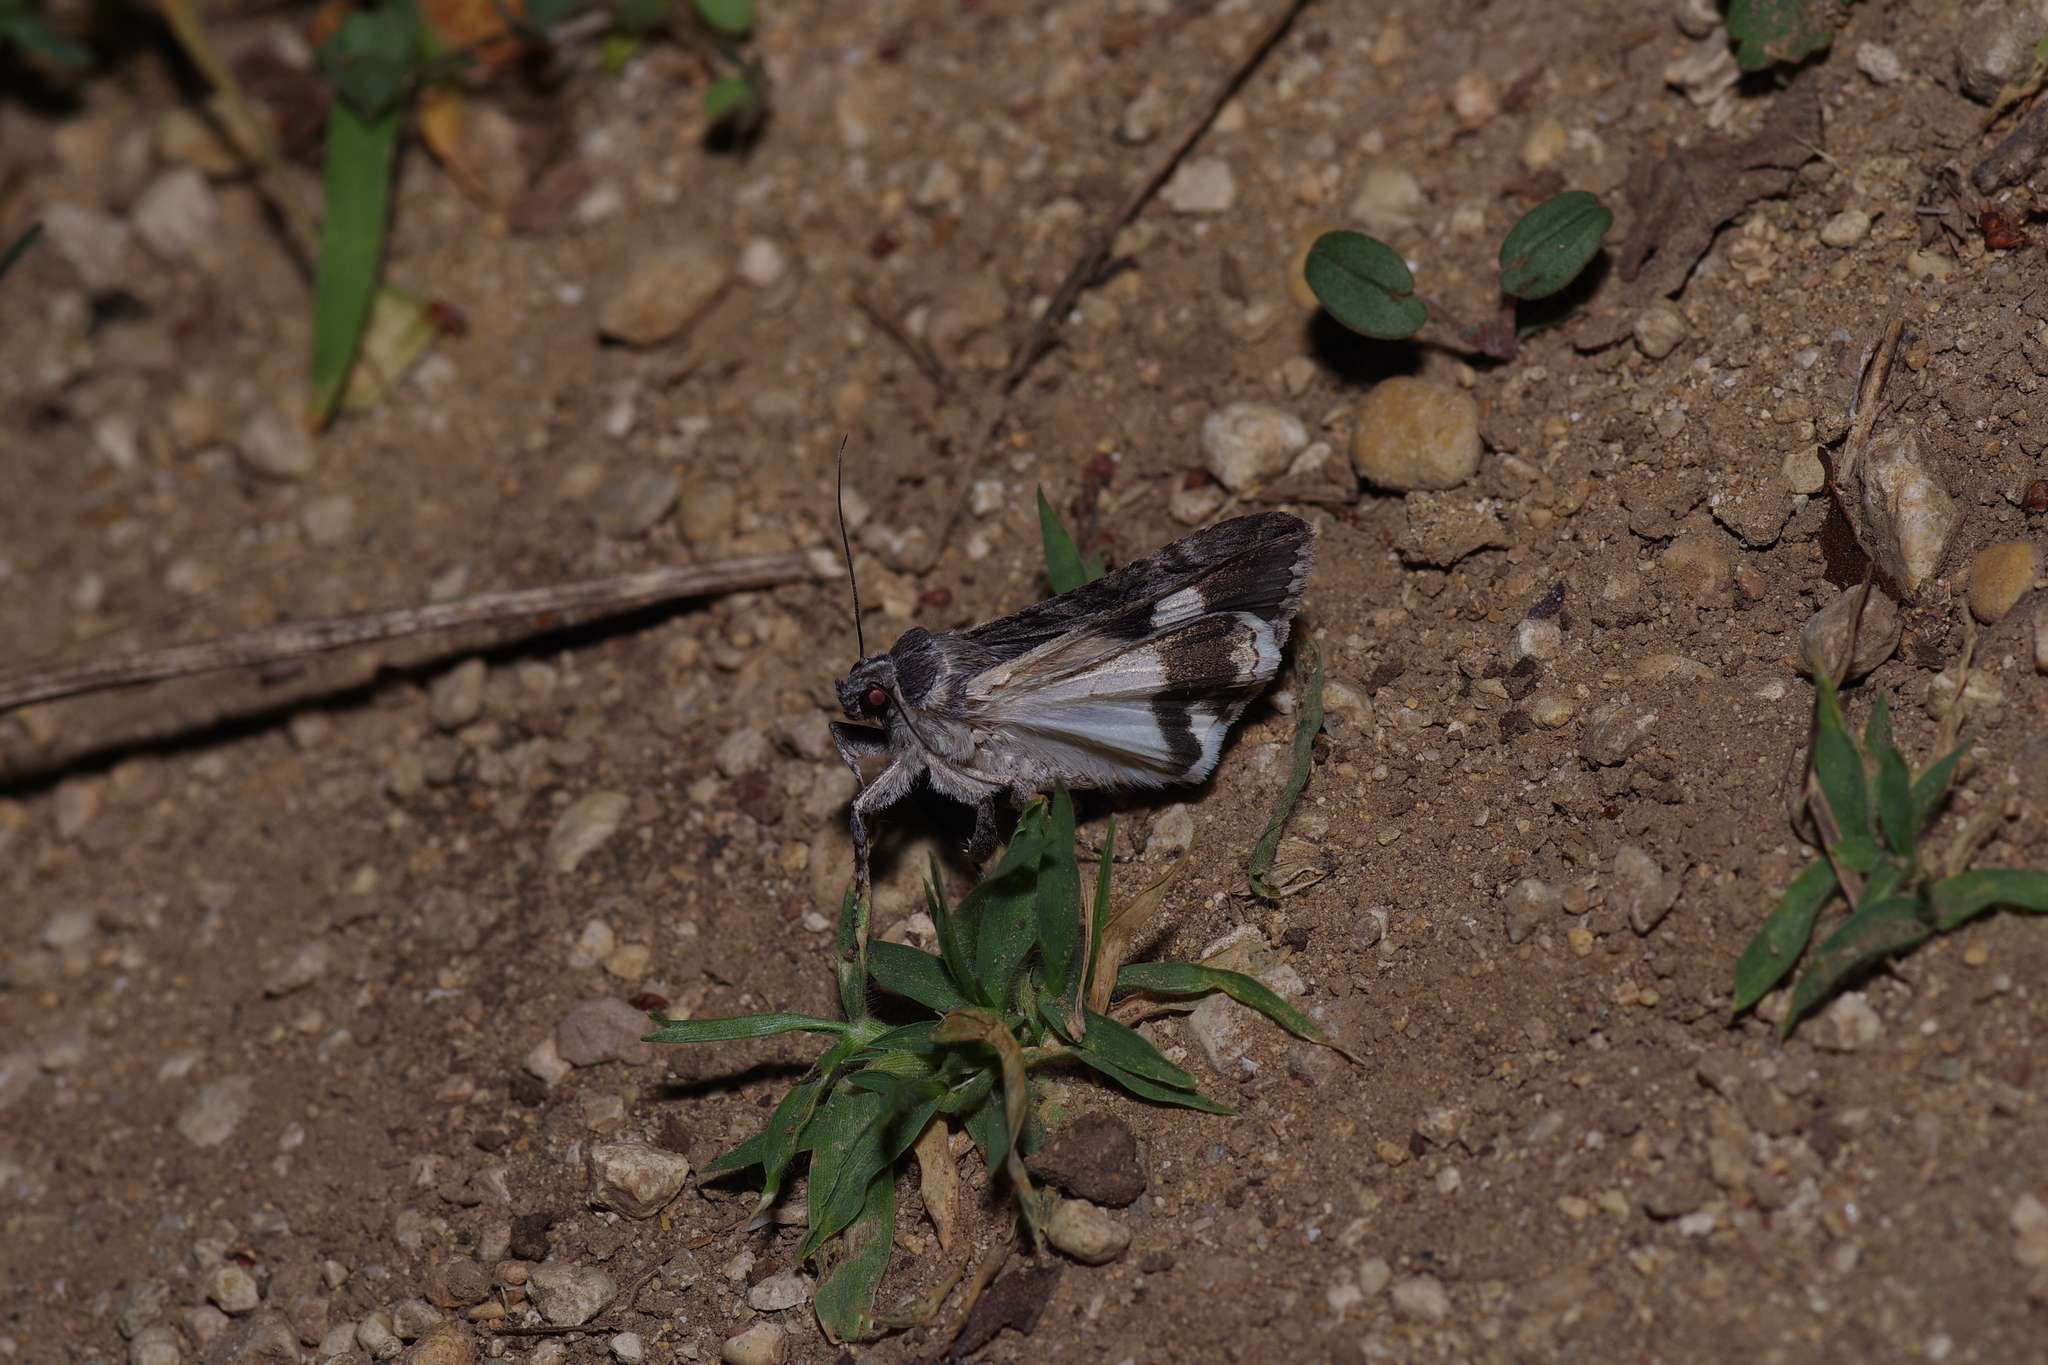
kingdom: Animalia
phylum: Arthropoda
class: Insecta
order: Lepidoptera
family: Erebidae
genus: Melipotis
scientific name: Melipotis jucunda
